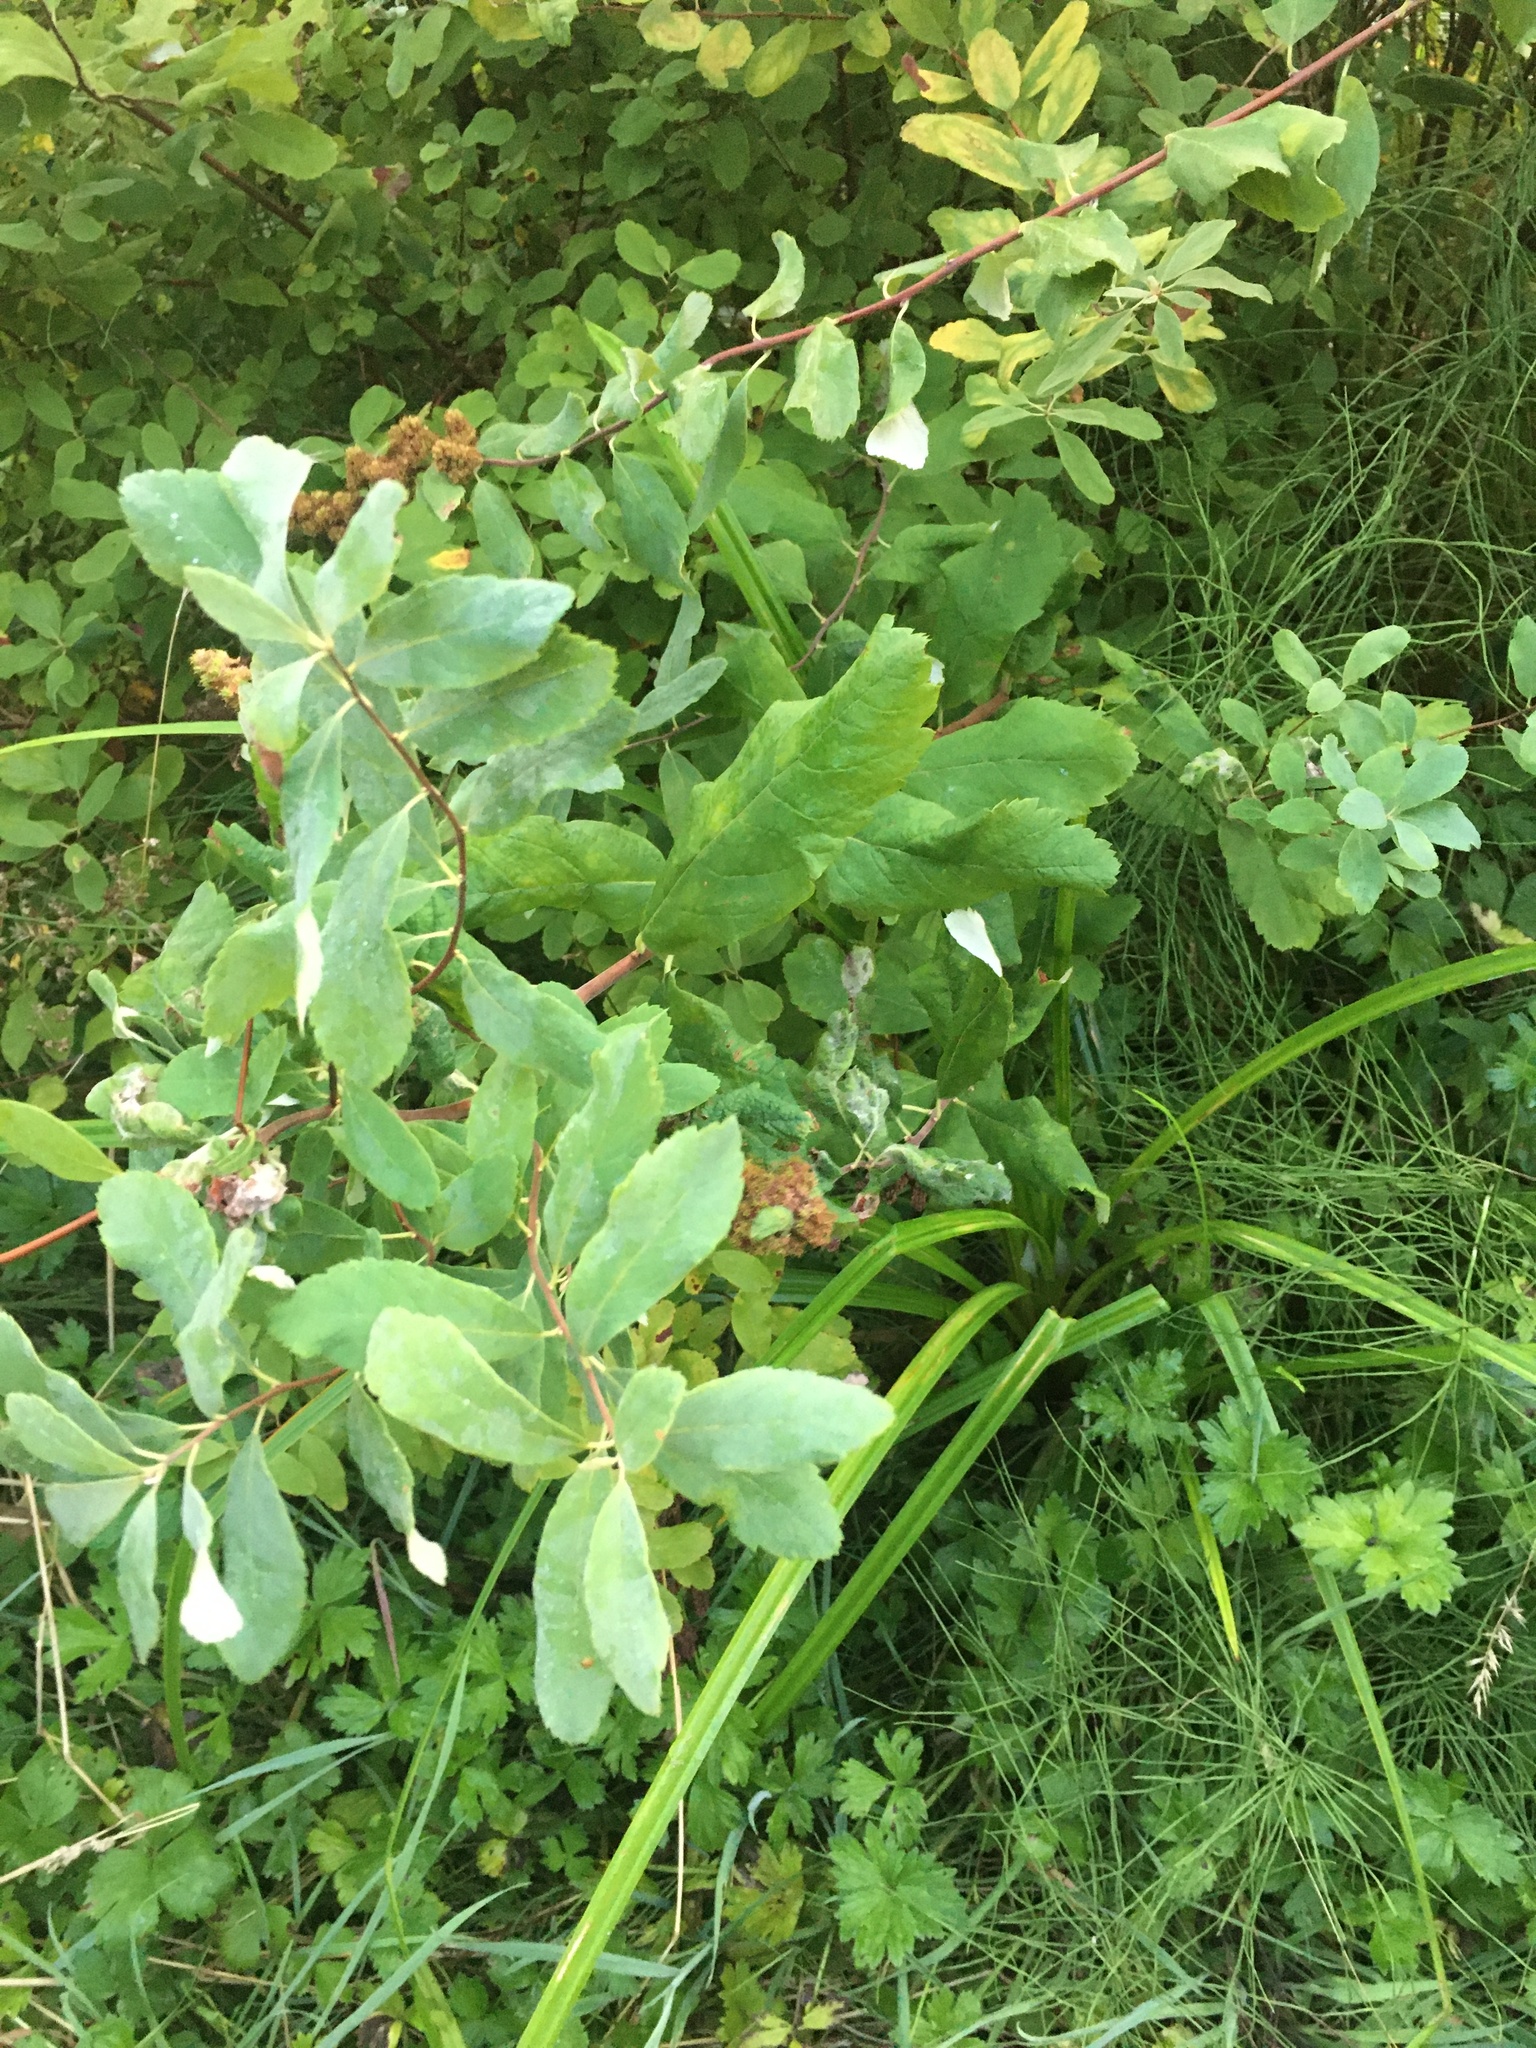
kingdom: Plantae
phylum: Tracheophyta
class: Magnoliopsida
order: Rosales
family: Rosaceae
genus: Spiraea
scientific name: Spiraea douglasii
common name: Steeplebush
